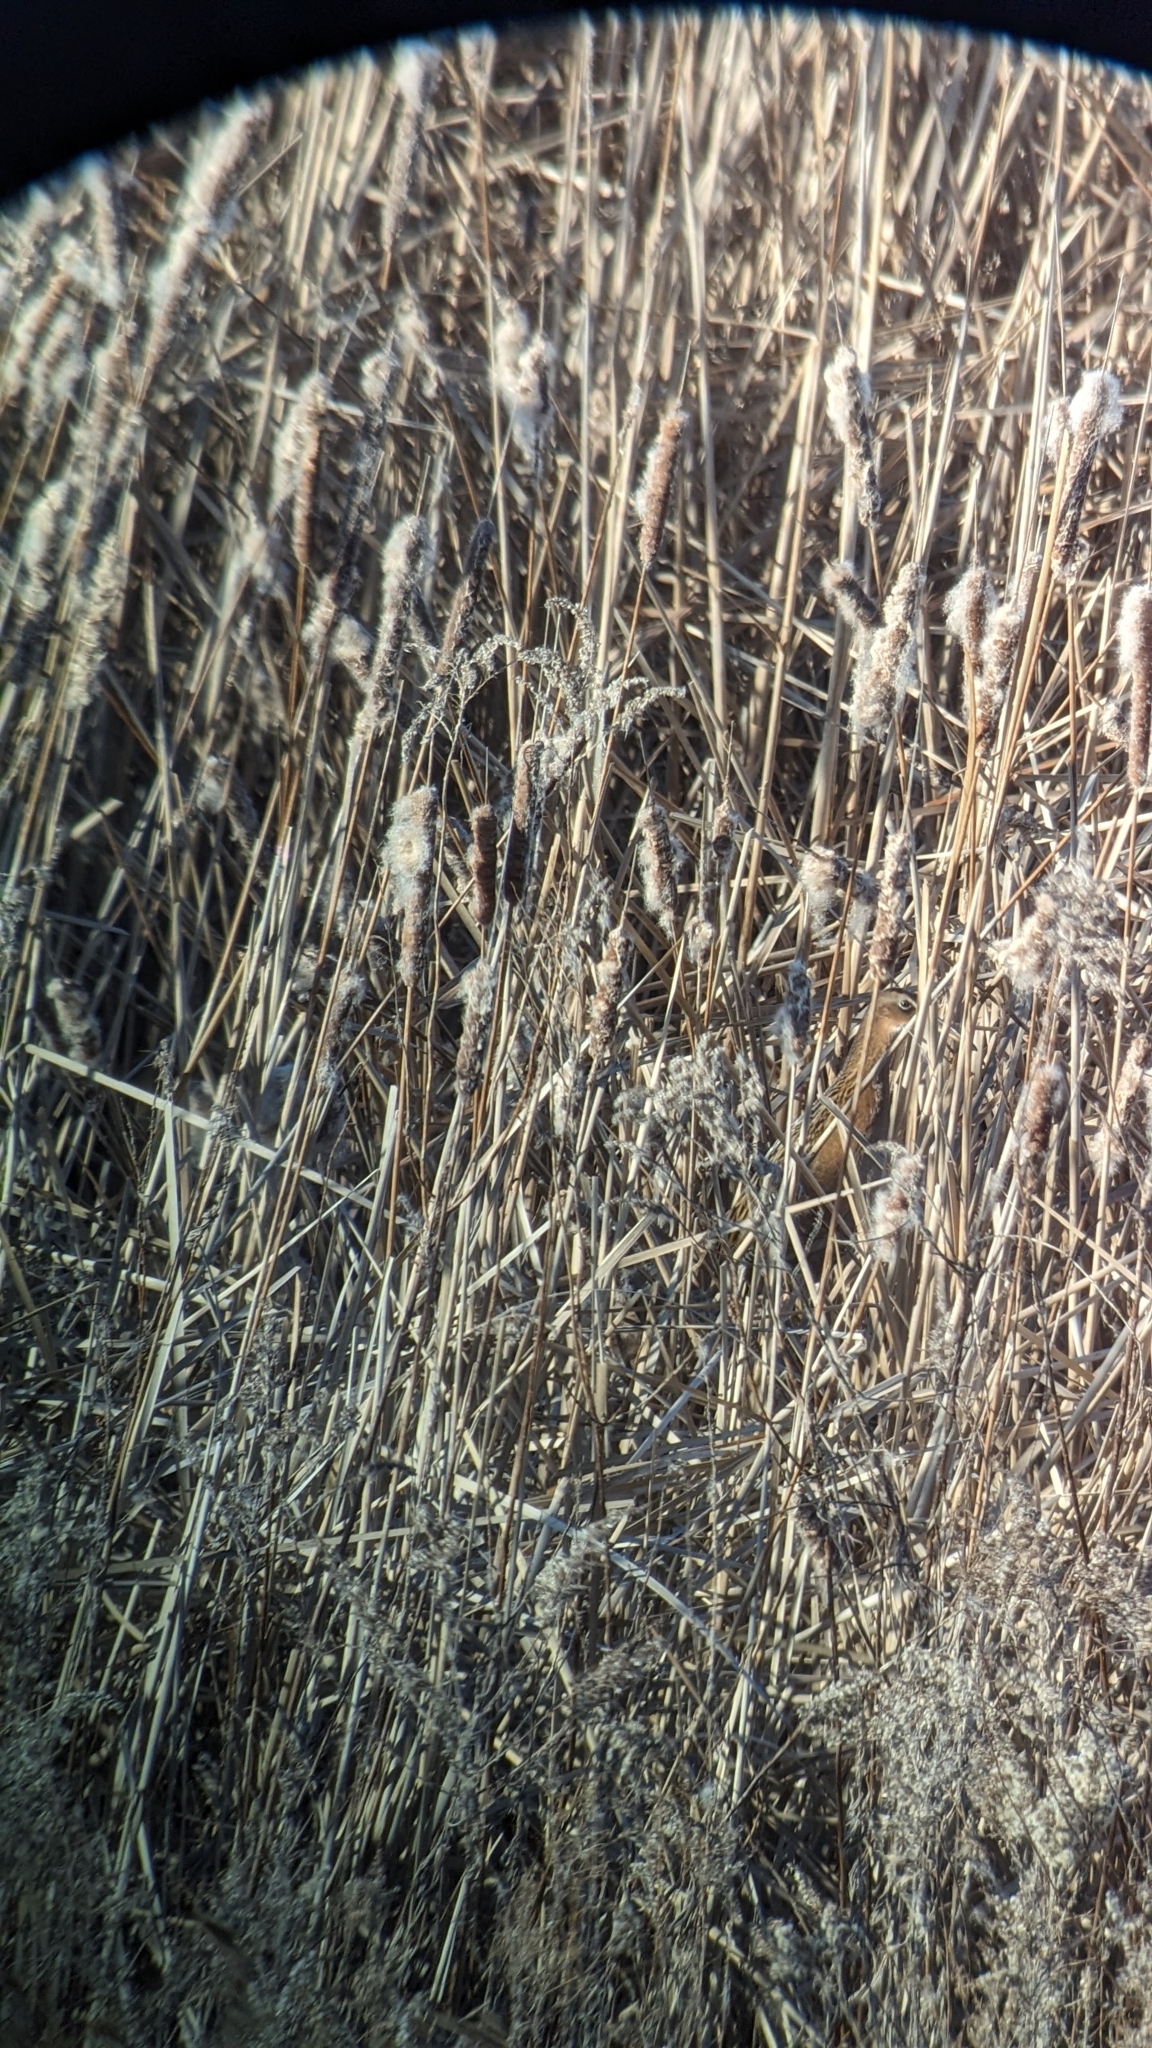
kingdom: Animalia
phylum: Chordata
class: Aves
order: Gruiformes
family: Rallidae
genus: Rallus
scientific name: Rallus elegans
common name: King rail
